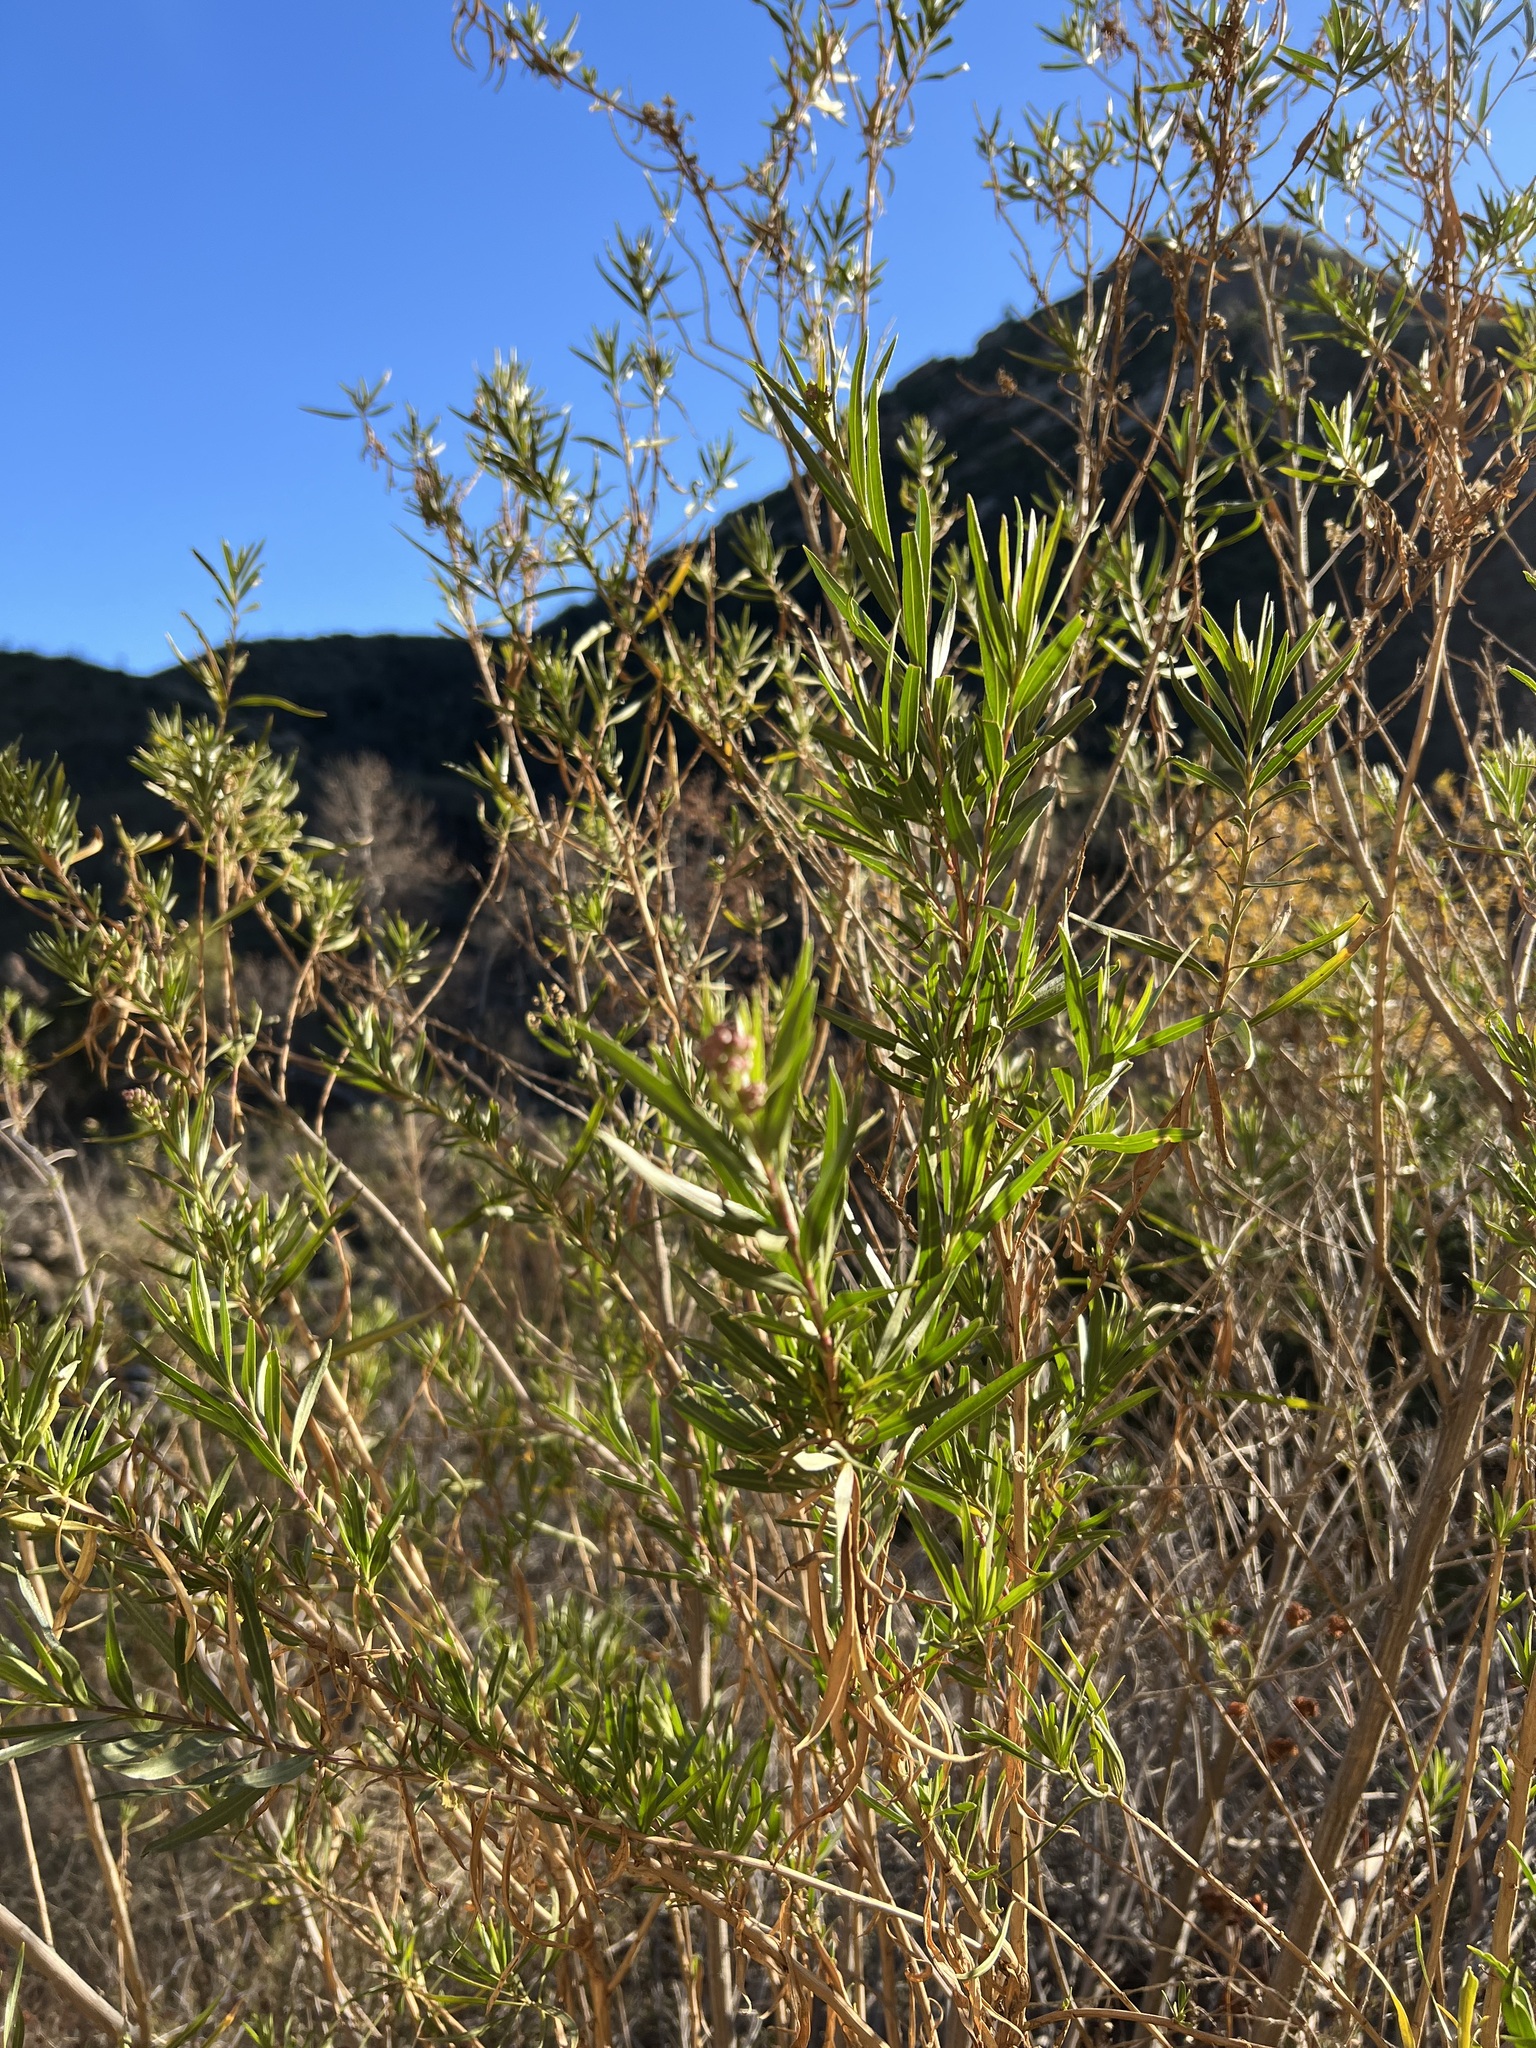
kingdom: Plantae
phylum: Tracheophyta
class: Magnoliopsida
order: Asterales
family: Asteraceae
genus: Baccharis
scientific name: Baccharis salicifolia
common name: Sticky baccharis
